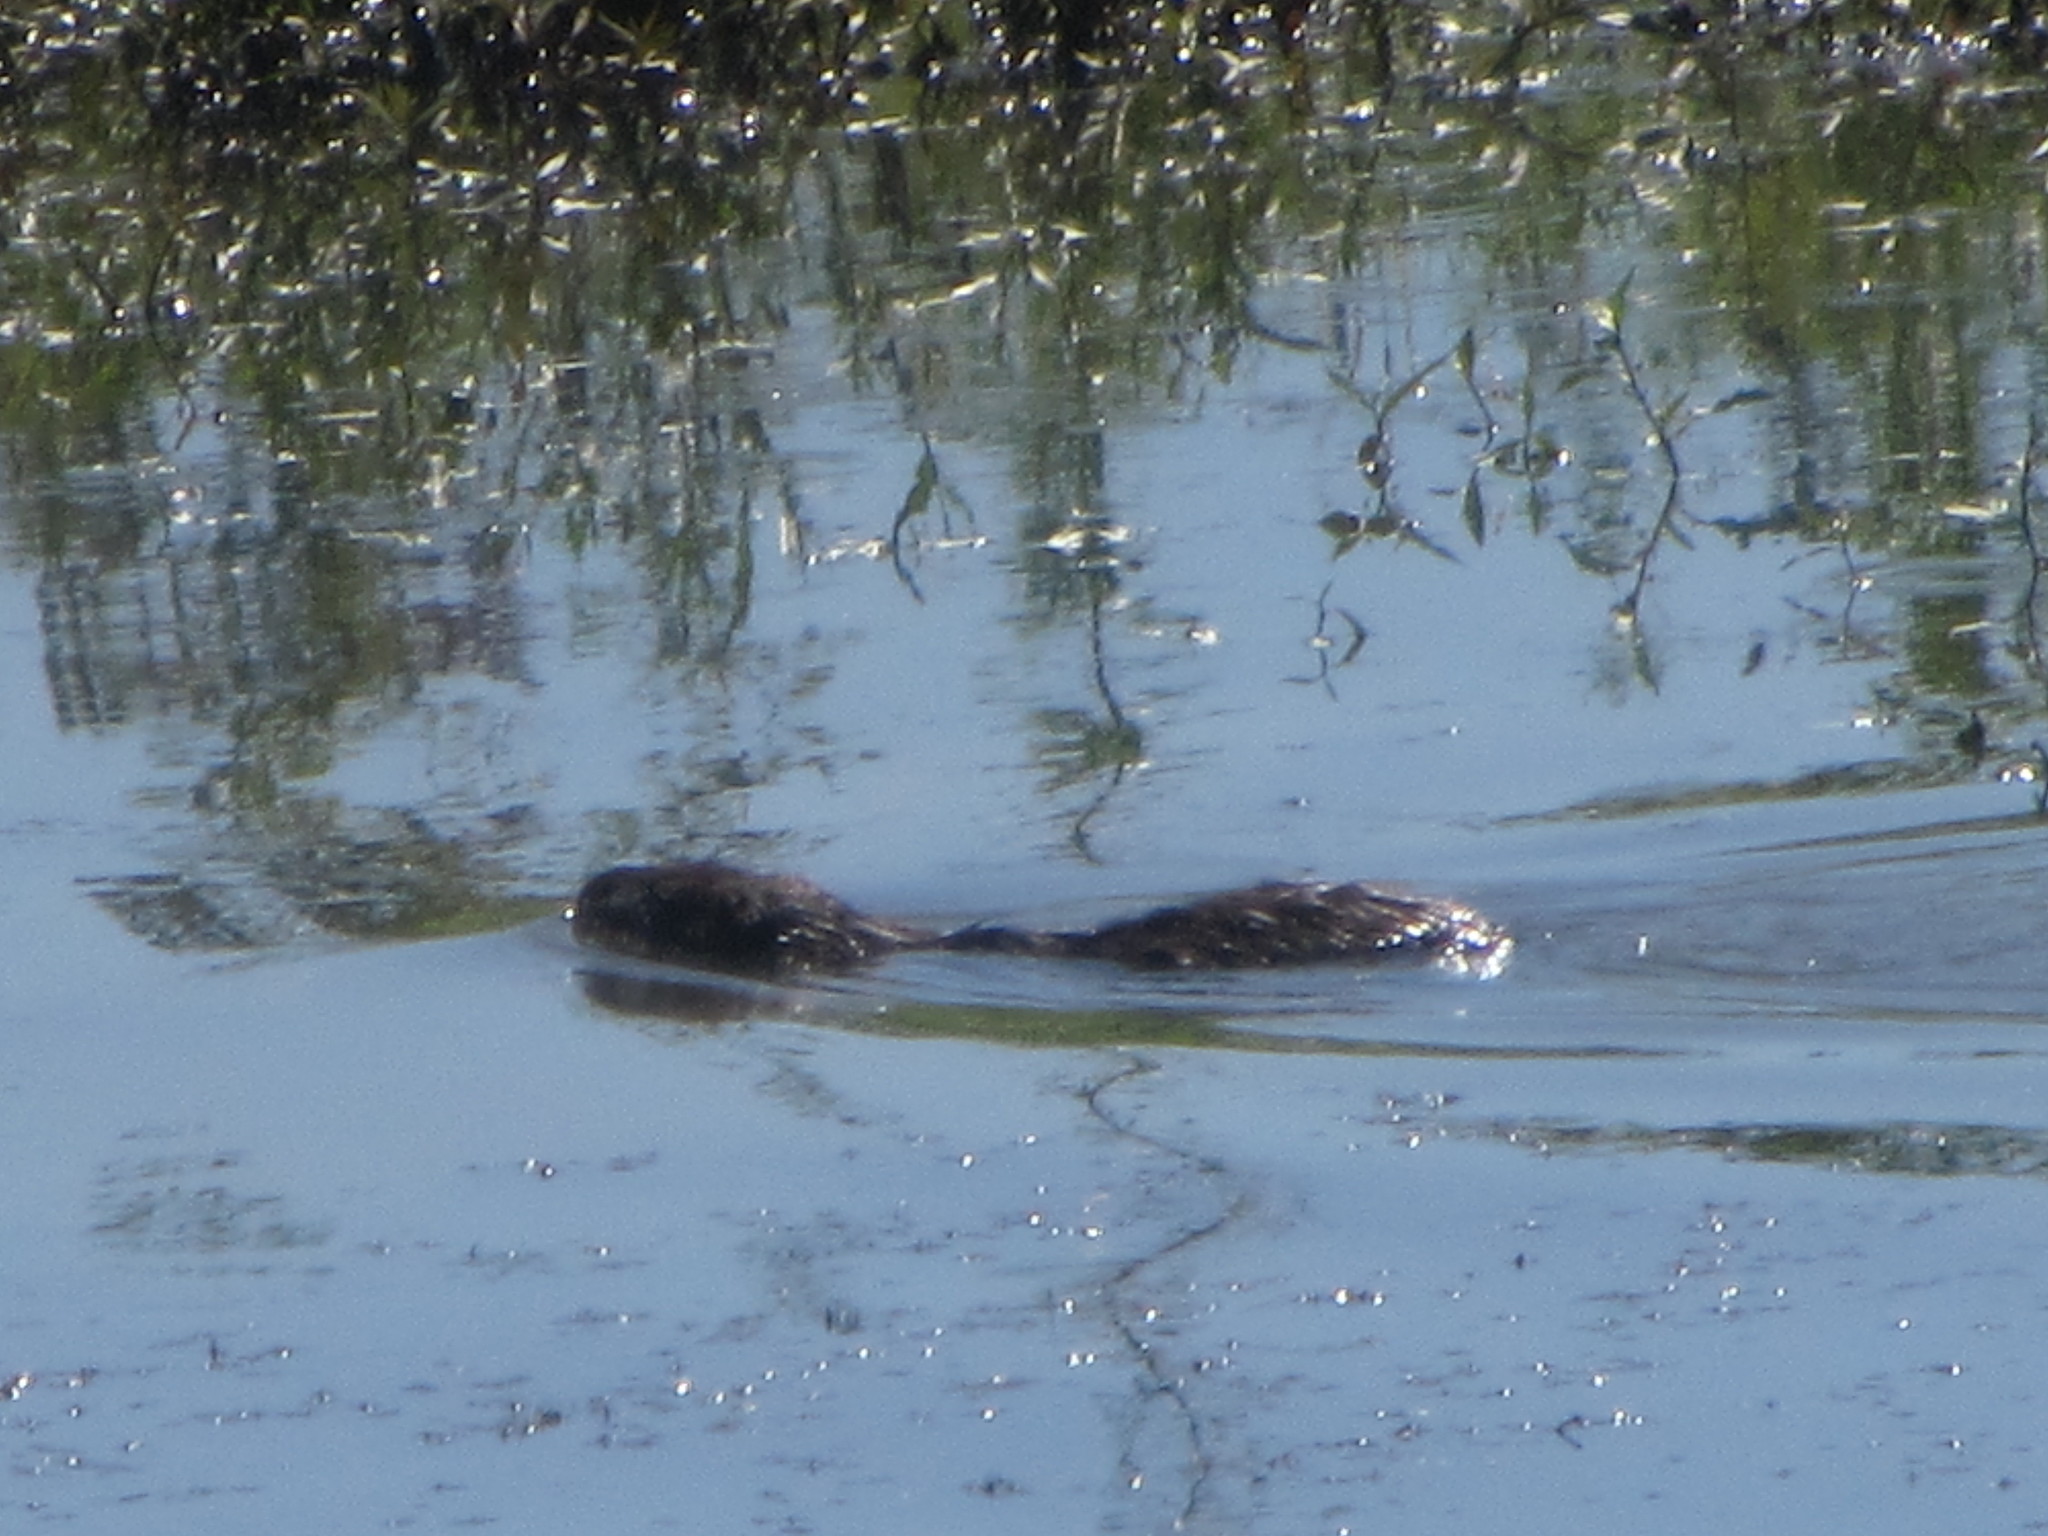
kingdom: Animalia
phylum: Chordata
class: Mammalia
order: Rodentia
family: Myocastoridae
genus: Myocastor
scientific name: Myocastor coypus
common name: Coypu
